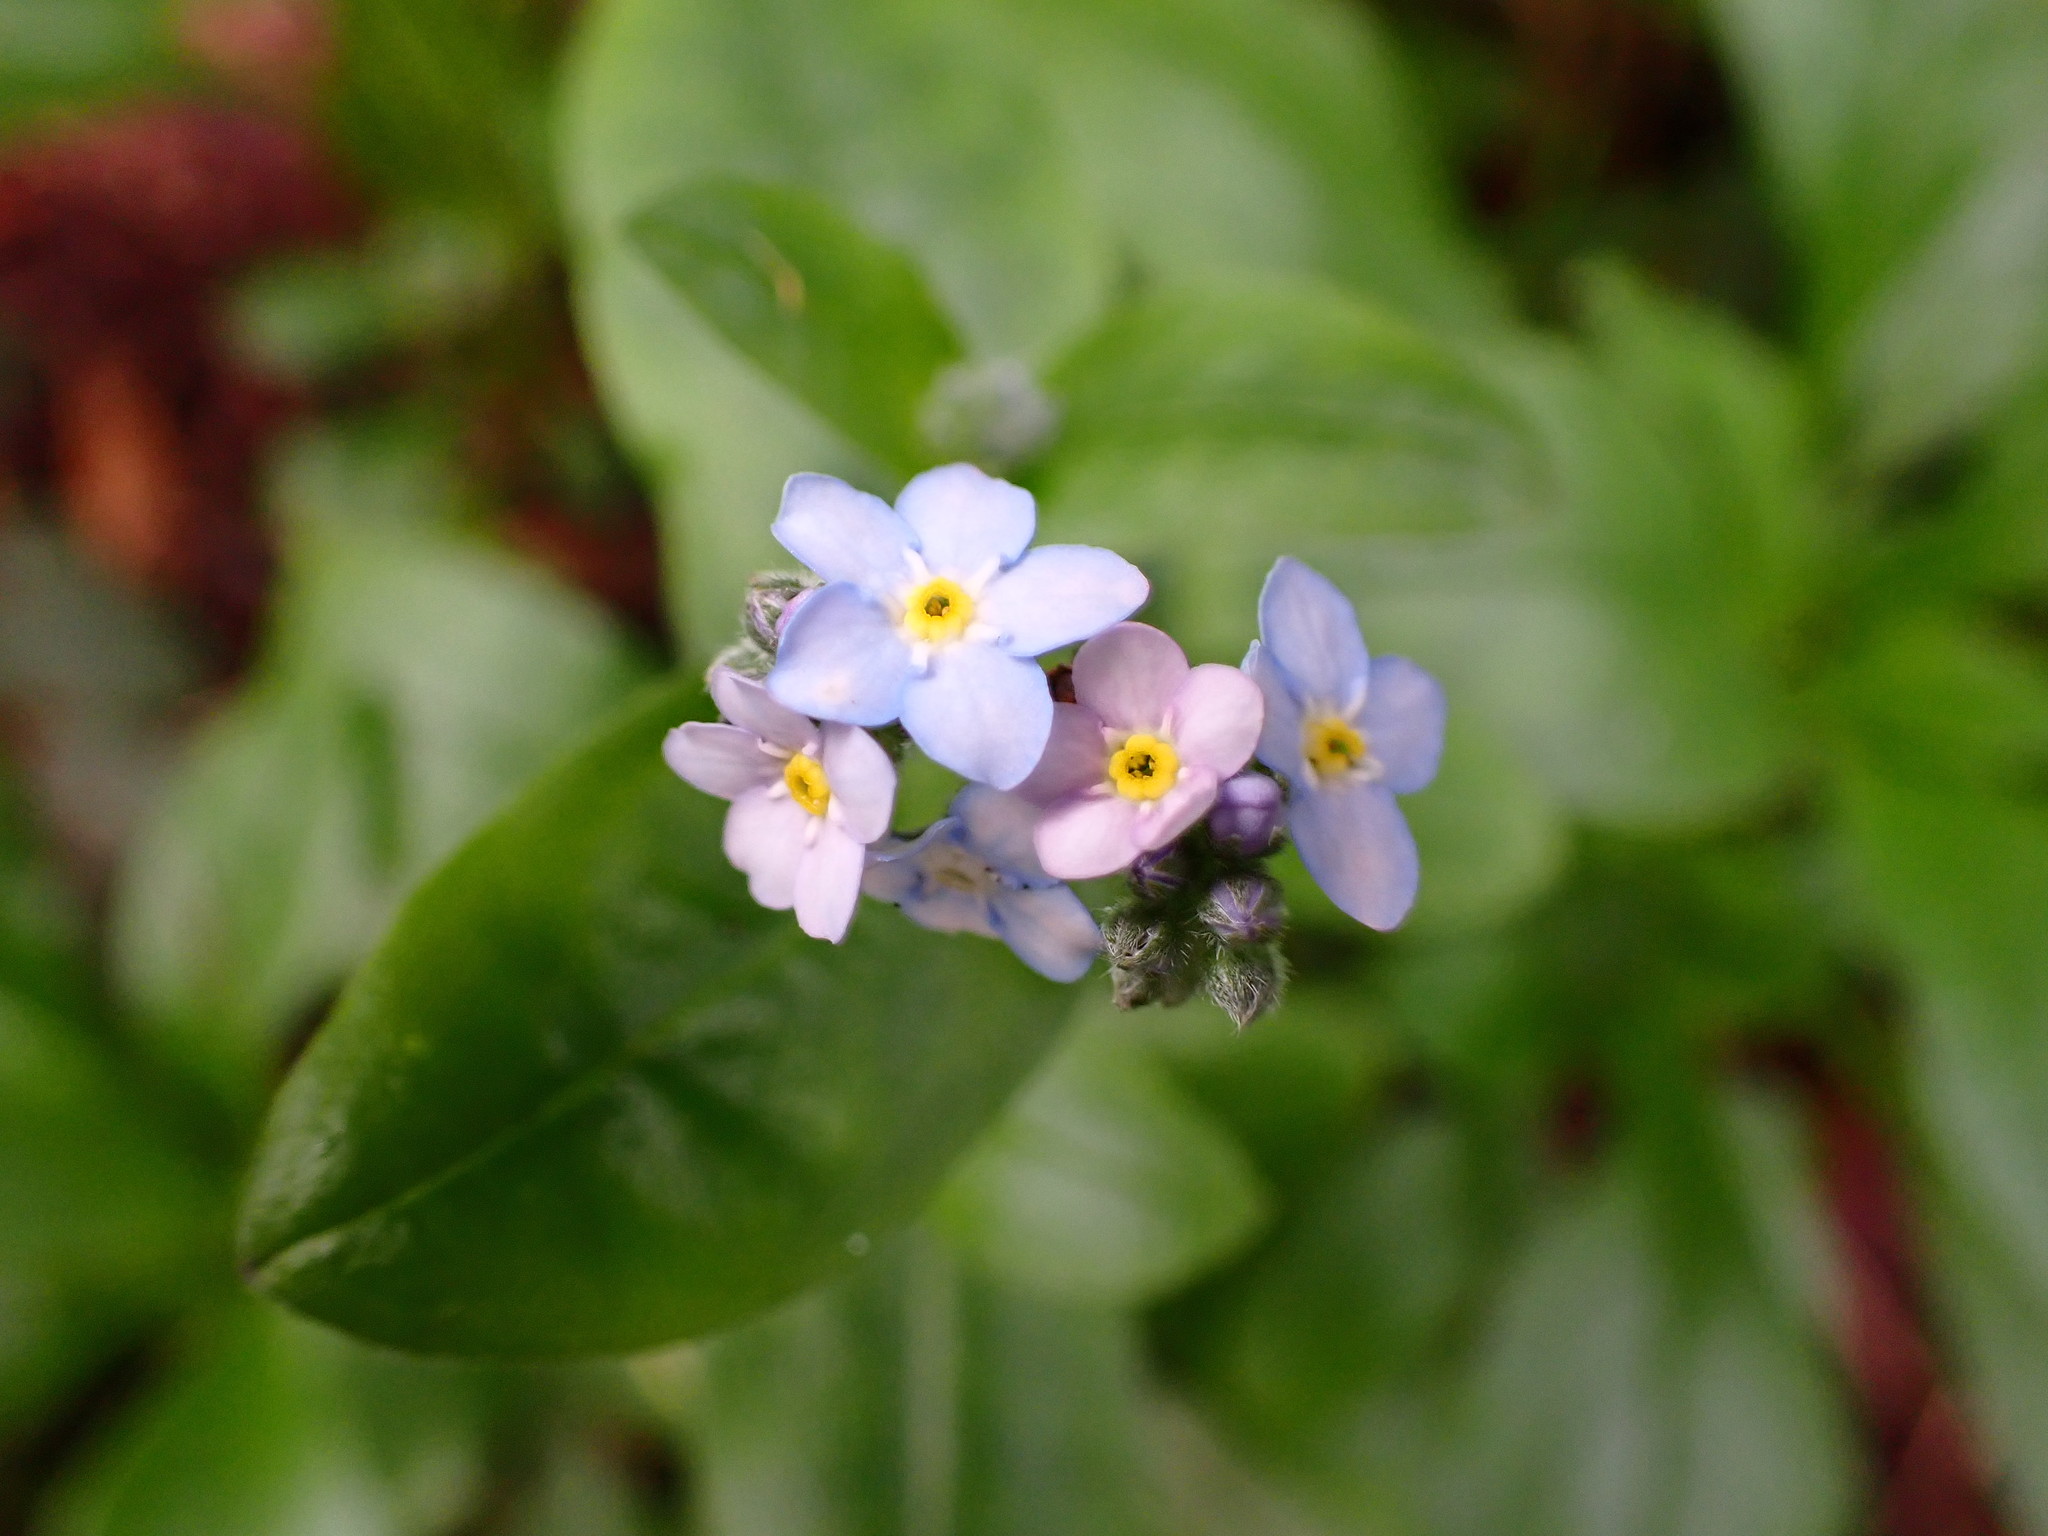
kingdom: Plantae
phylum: Tracheophyta
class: Magnoliopsida
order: Boraginales
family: Boraginaceae
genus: Myosotis
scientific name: Myosotis latifolia
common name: Broadleaf forget-me-not
